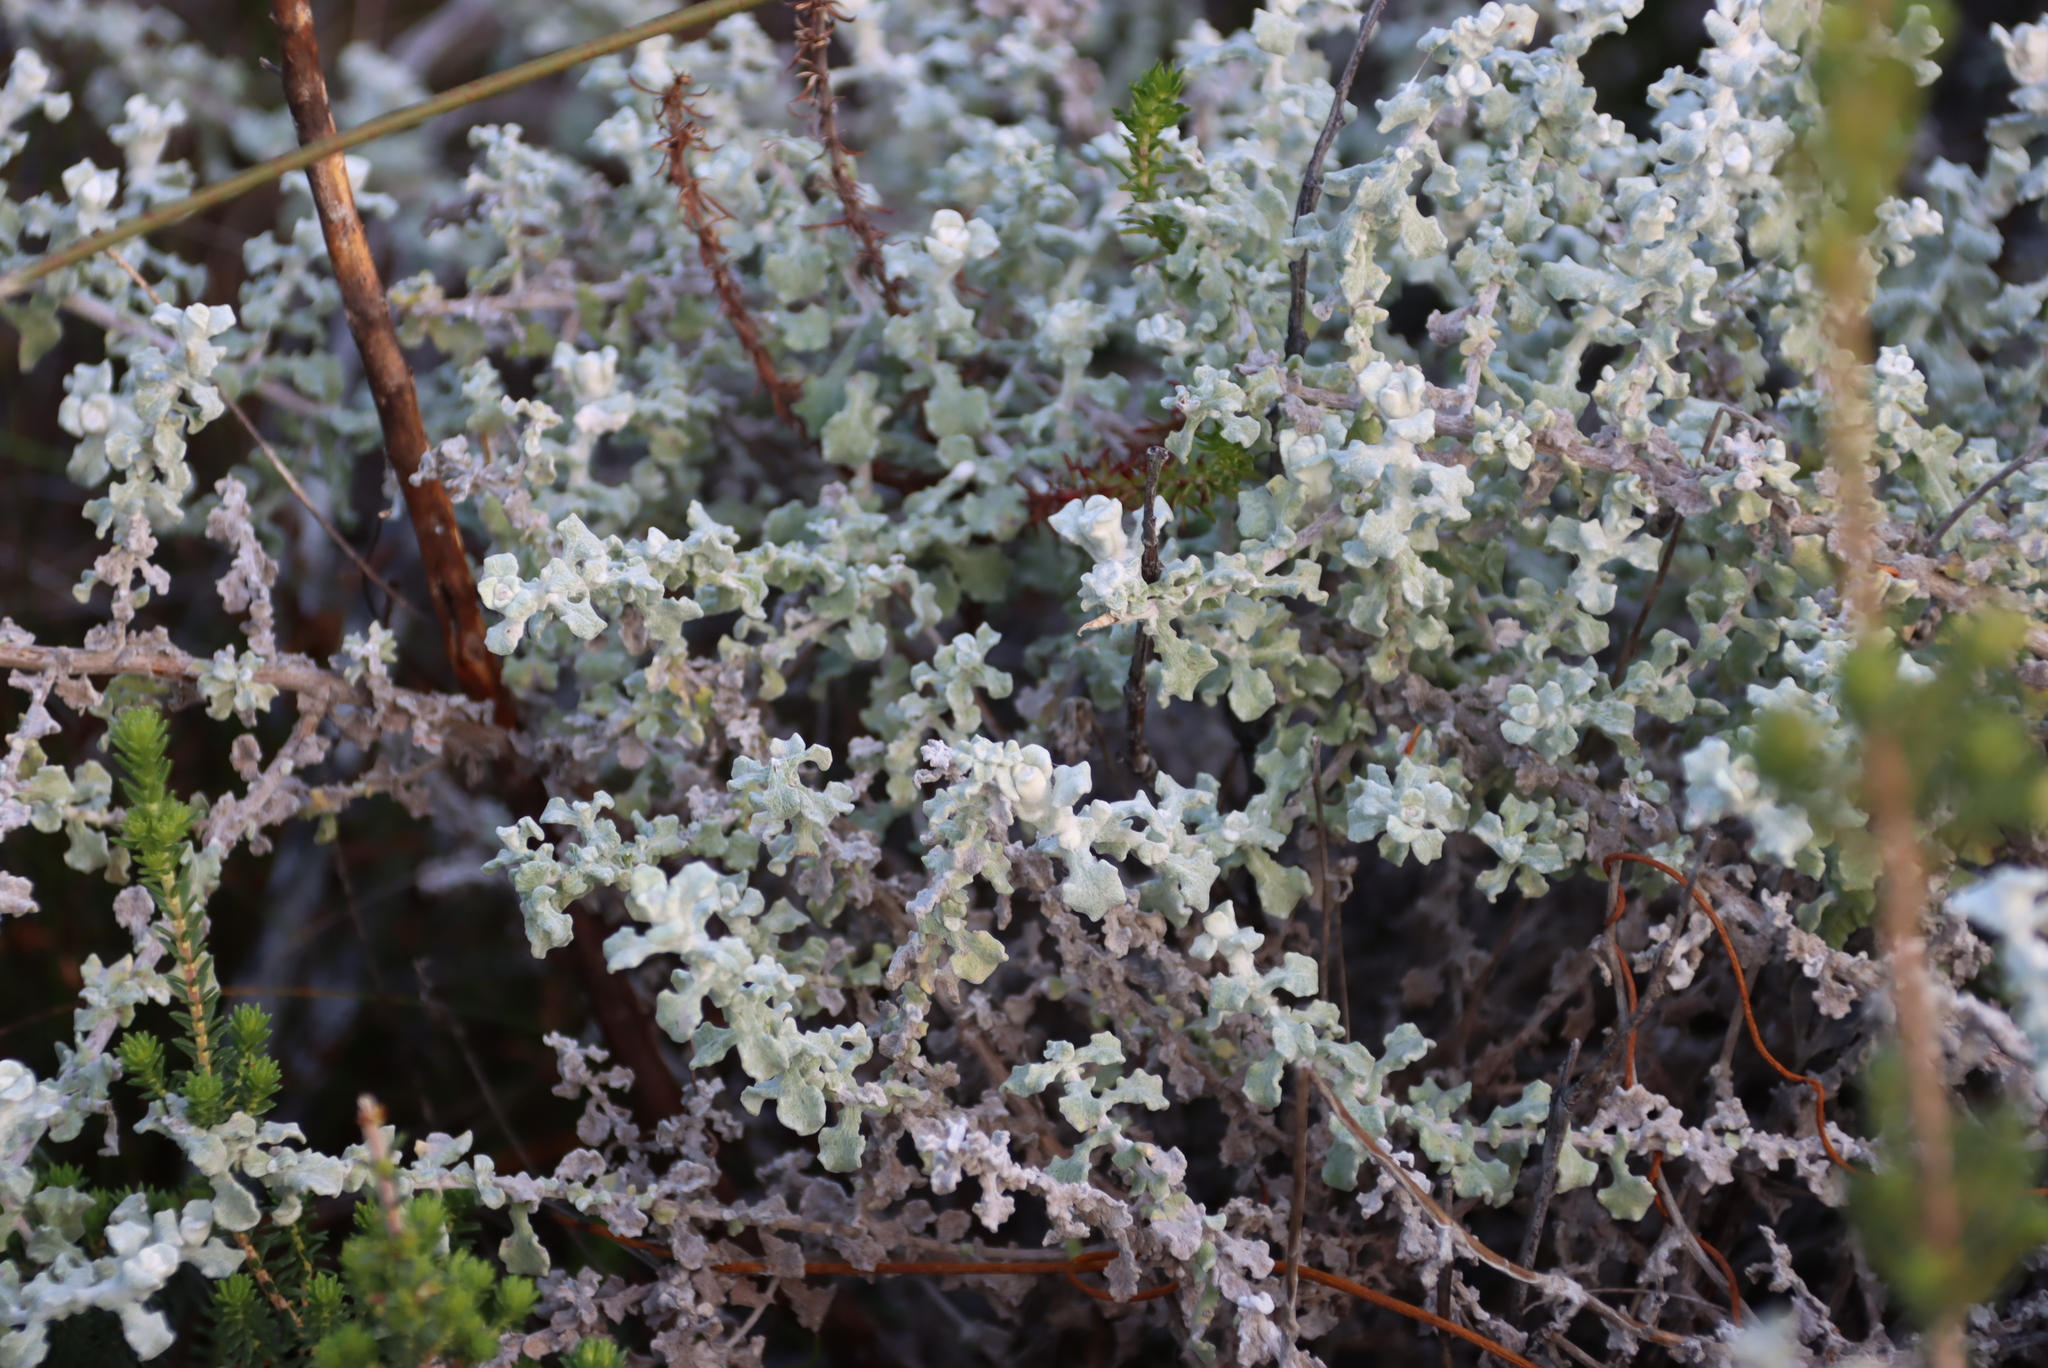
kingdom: Plantae
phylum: Tracheophyta
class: Magnoliopsida
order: Asterales
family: Asteraceae
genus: Helichrysum
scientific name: Helichrysum patulum
